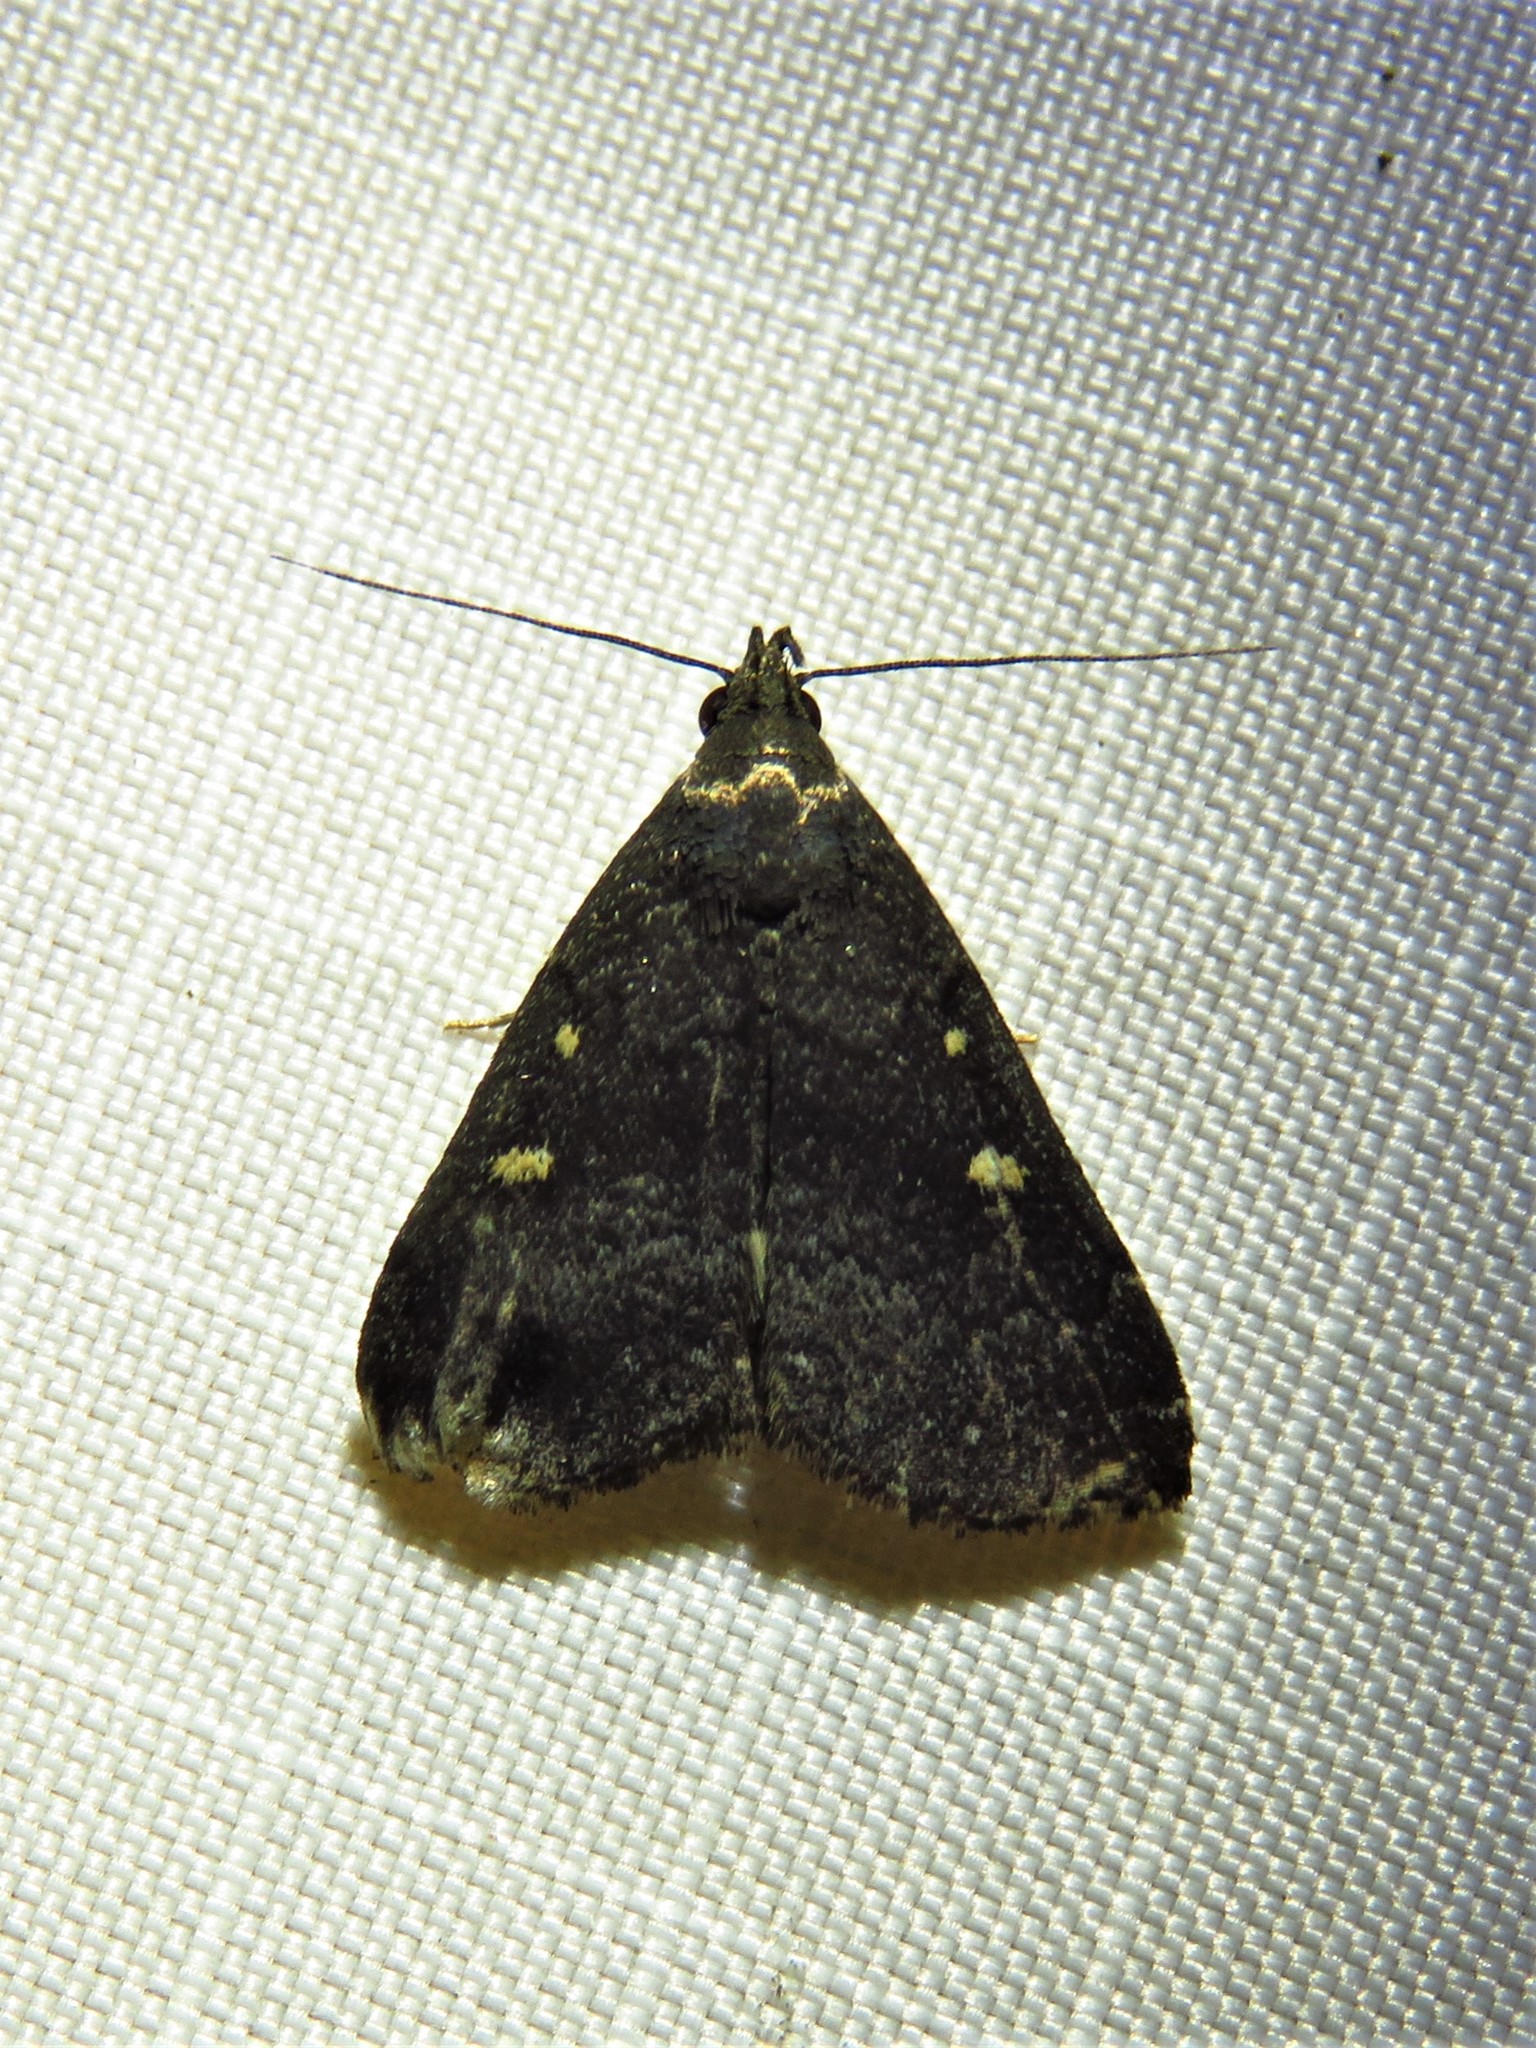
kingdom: Animalia
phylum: Arthropoda
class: Insecta
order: Lepidoptera
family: Erebidae
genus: Tetanolita
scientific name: Tetanolita mynesalis
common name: Smoky tetanolita moth
